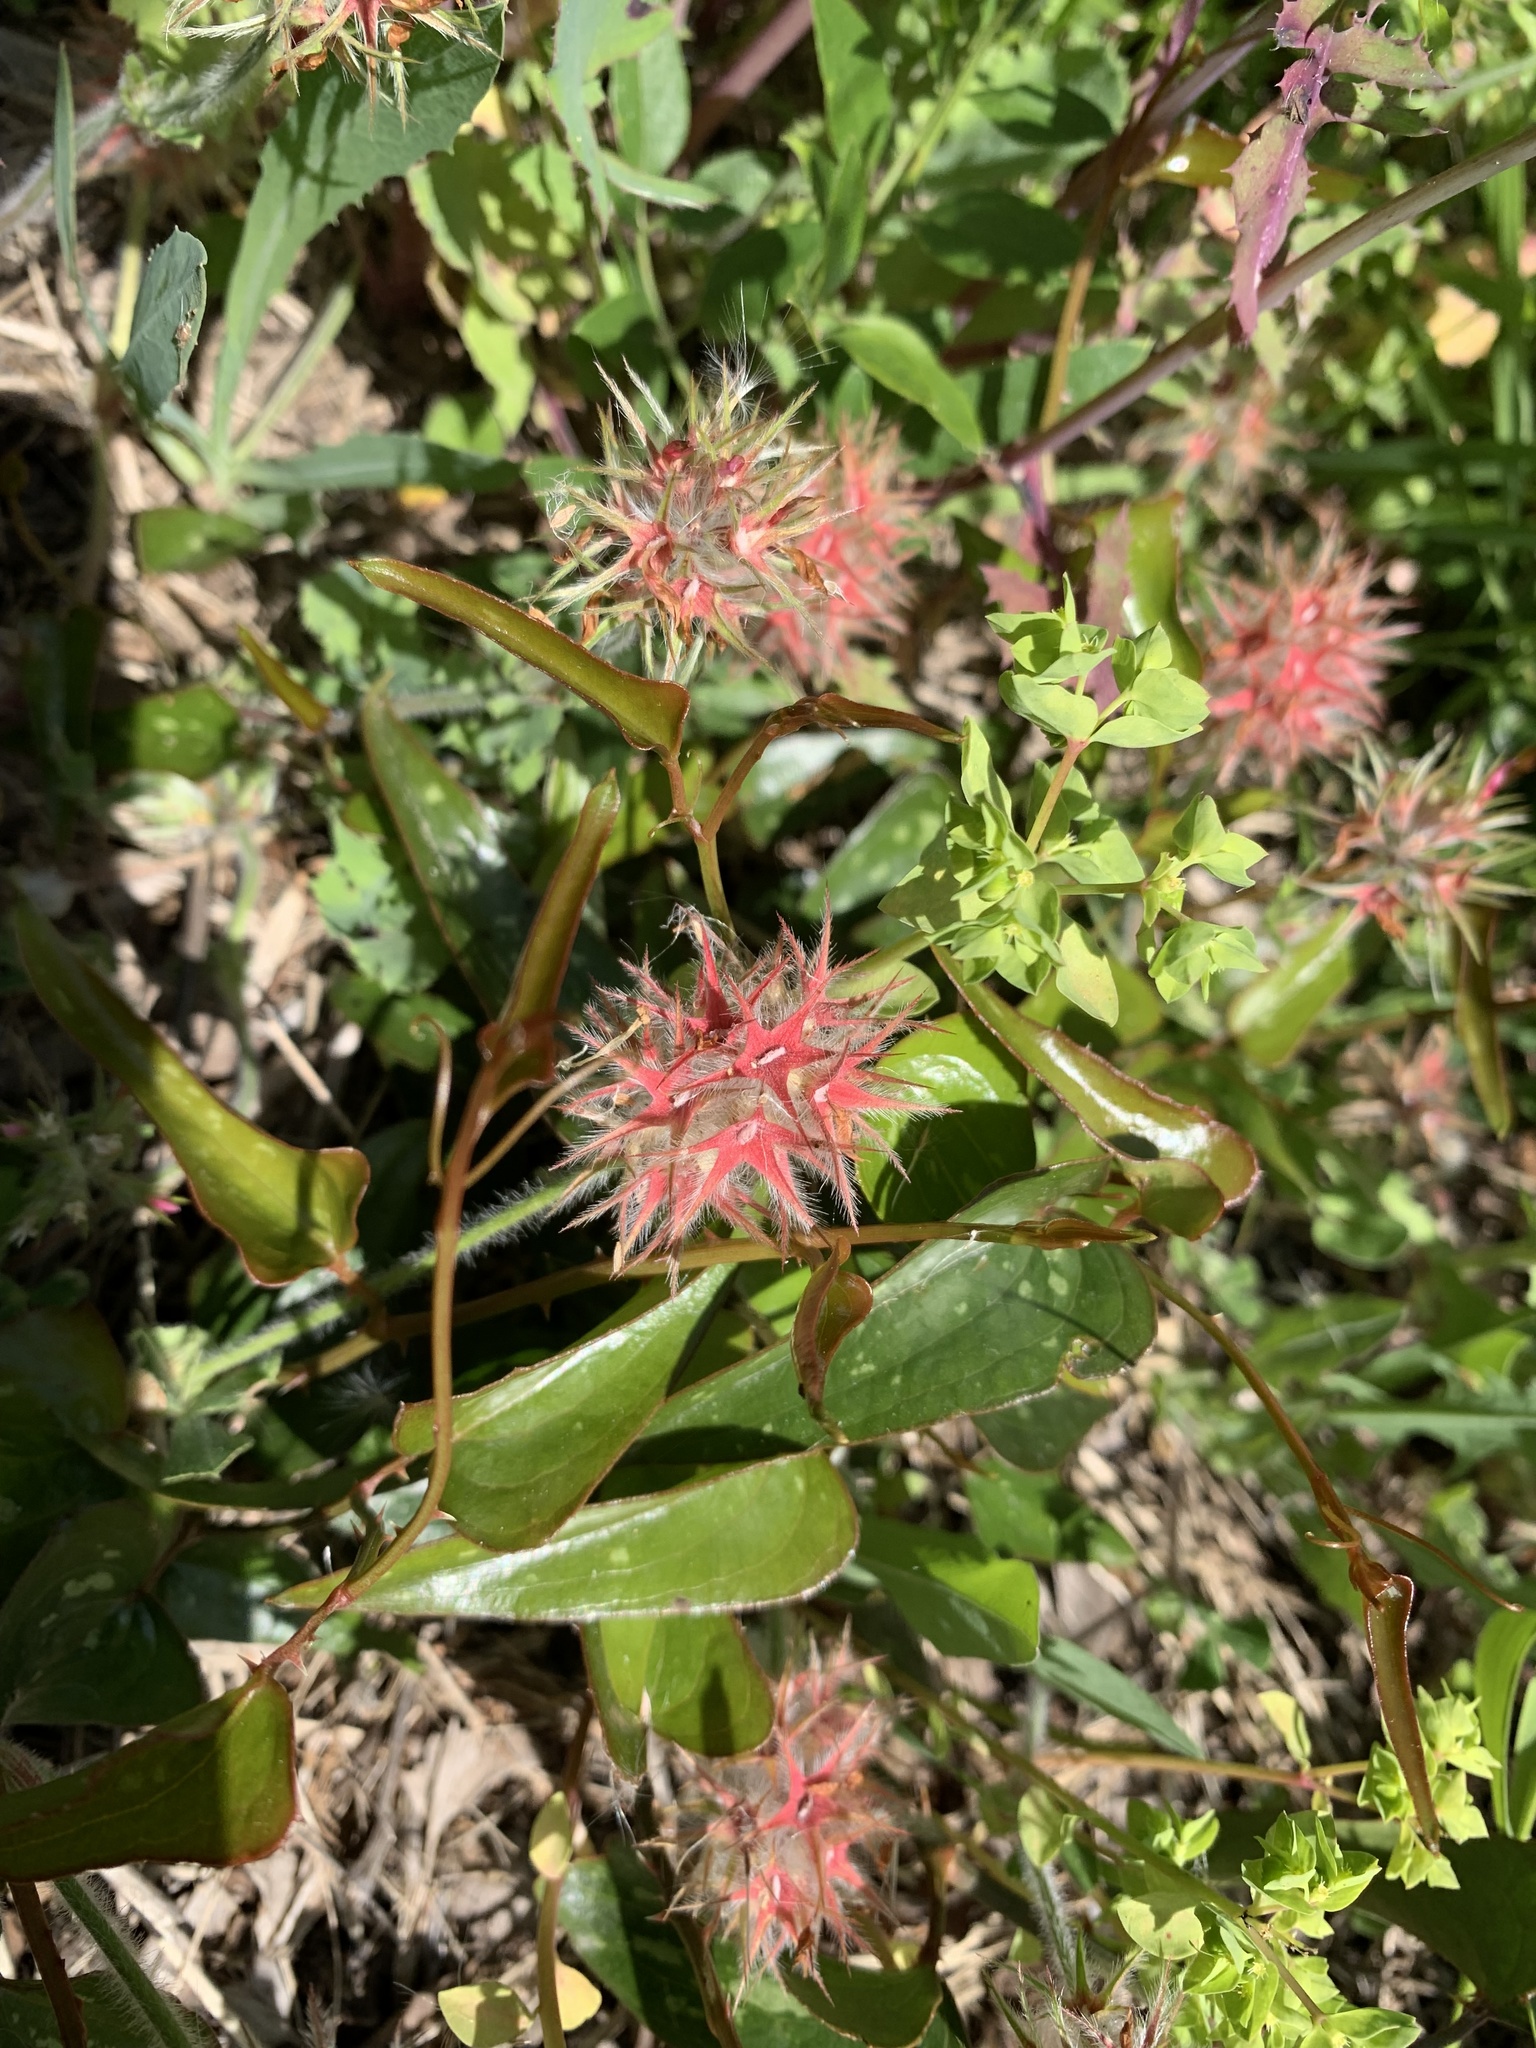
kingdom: Plantae
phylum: Tracheophyta
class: Magnoliopsida
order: Fabales
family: Fabaceae
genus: Trifolium
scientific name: Trifolium stellatum
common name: Starry clover
